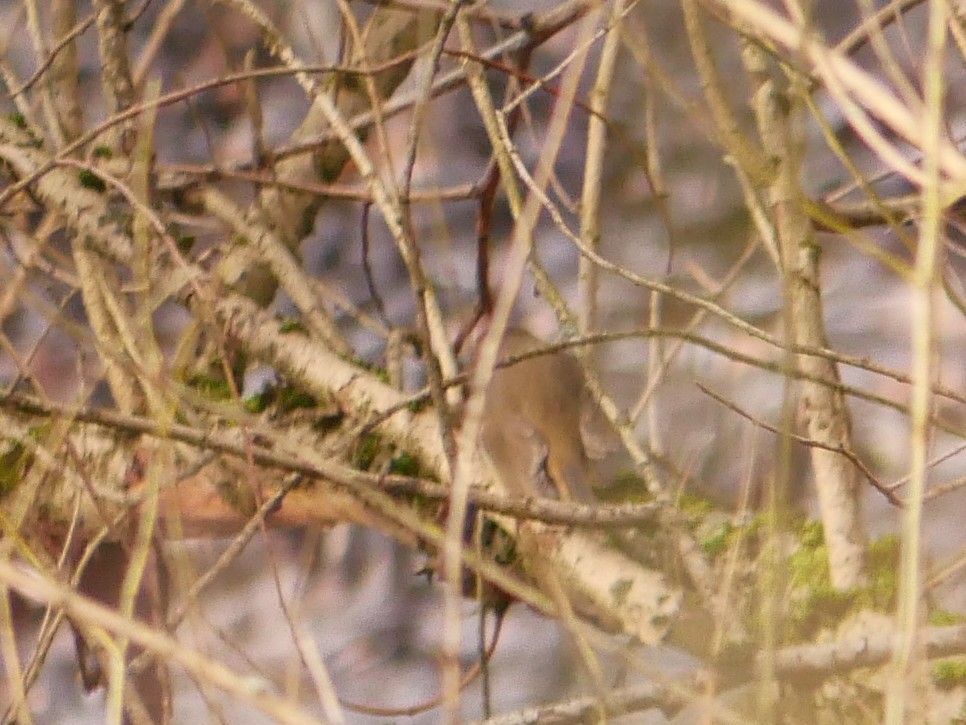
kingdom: Animalia
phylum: Chordata
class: Aves
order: Passeriformes
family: Muscicapidae
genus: Erithacus
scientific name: Erithacus rubecula
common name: European robin
